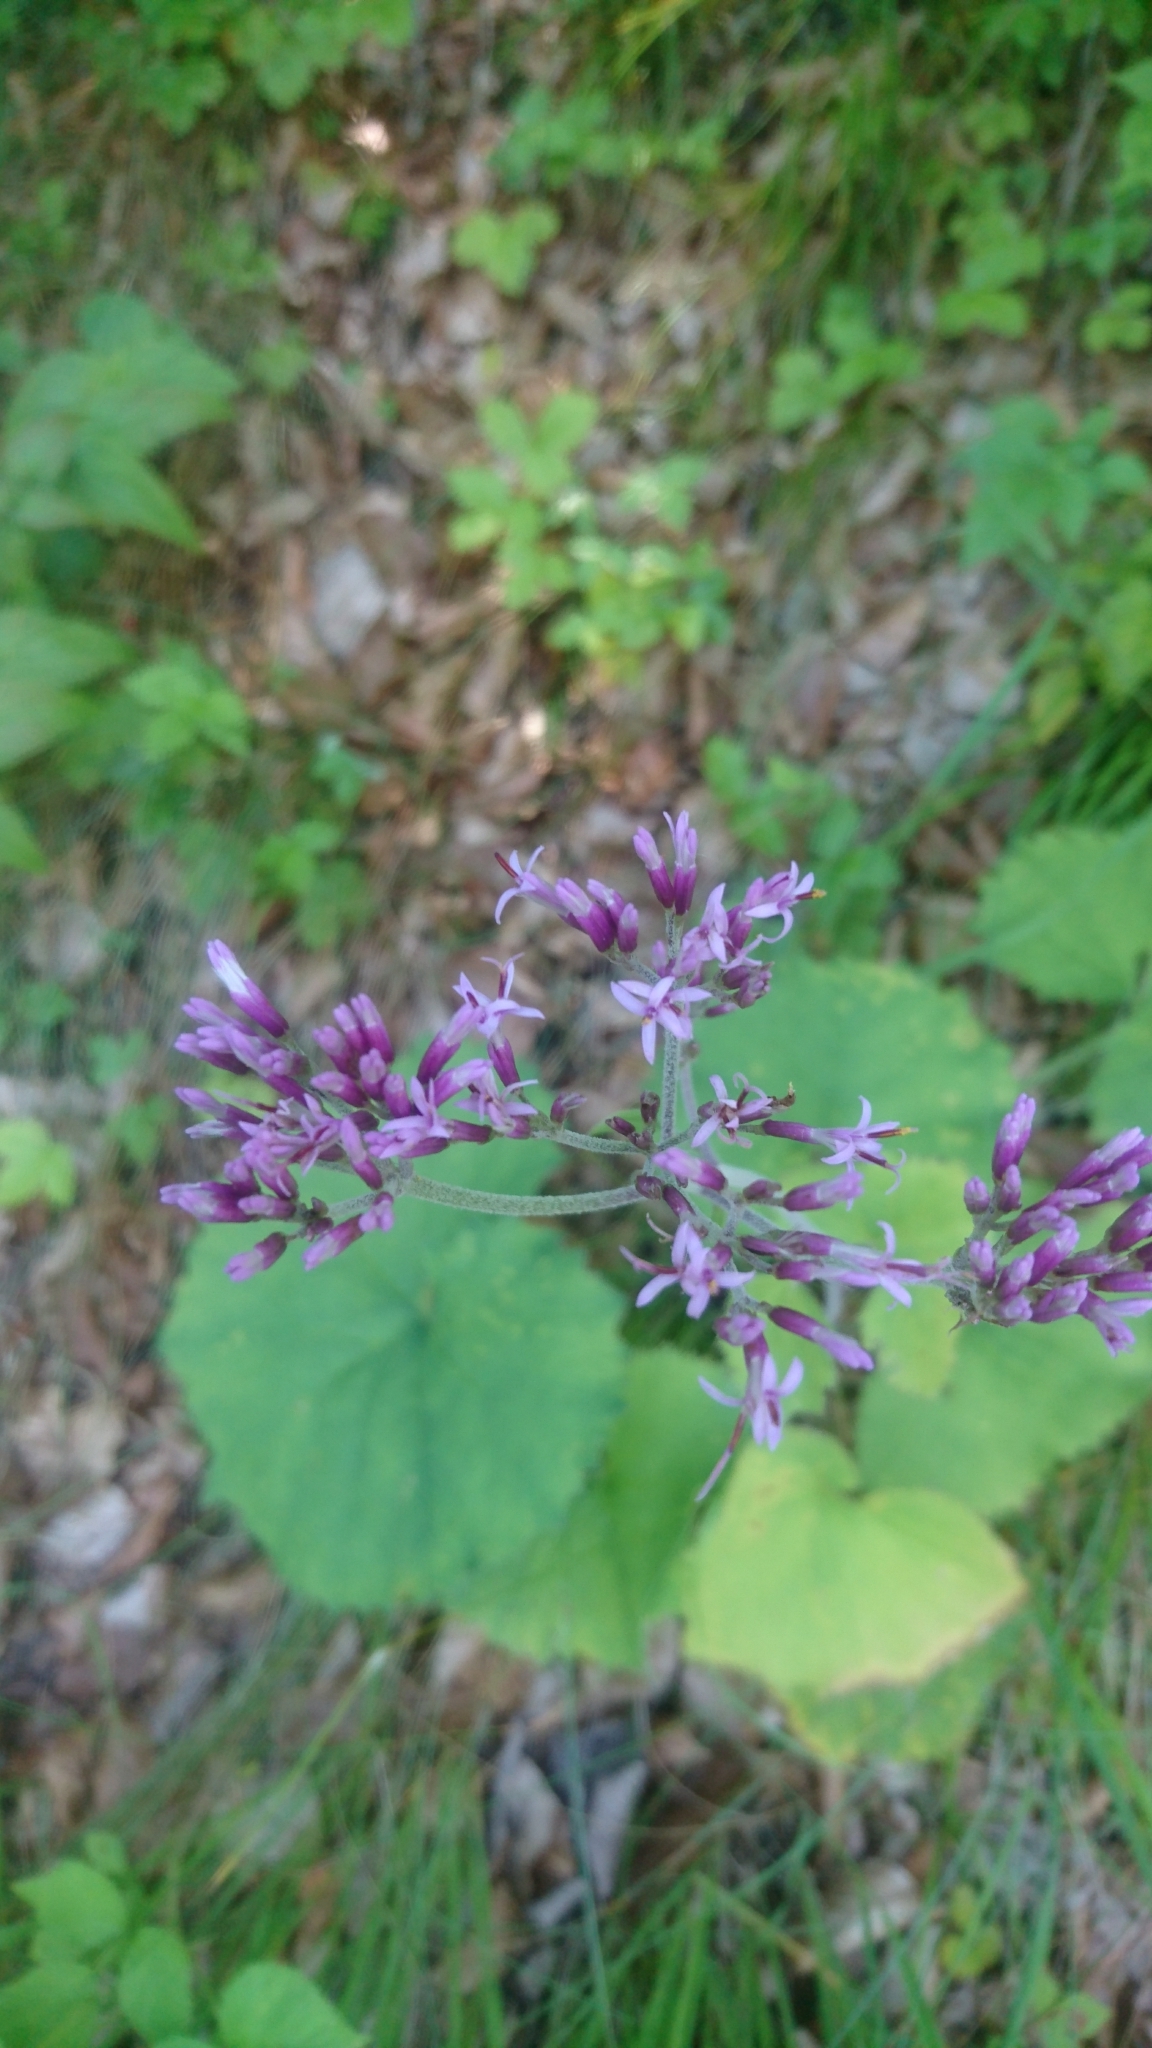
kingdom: Plantae
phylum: Tracheophyta
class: Magnoliopsida
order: Asterales
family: Asteraceae
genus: Adenostyles
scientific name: Adenostyles alpina
